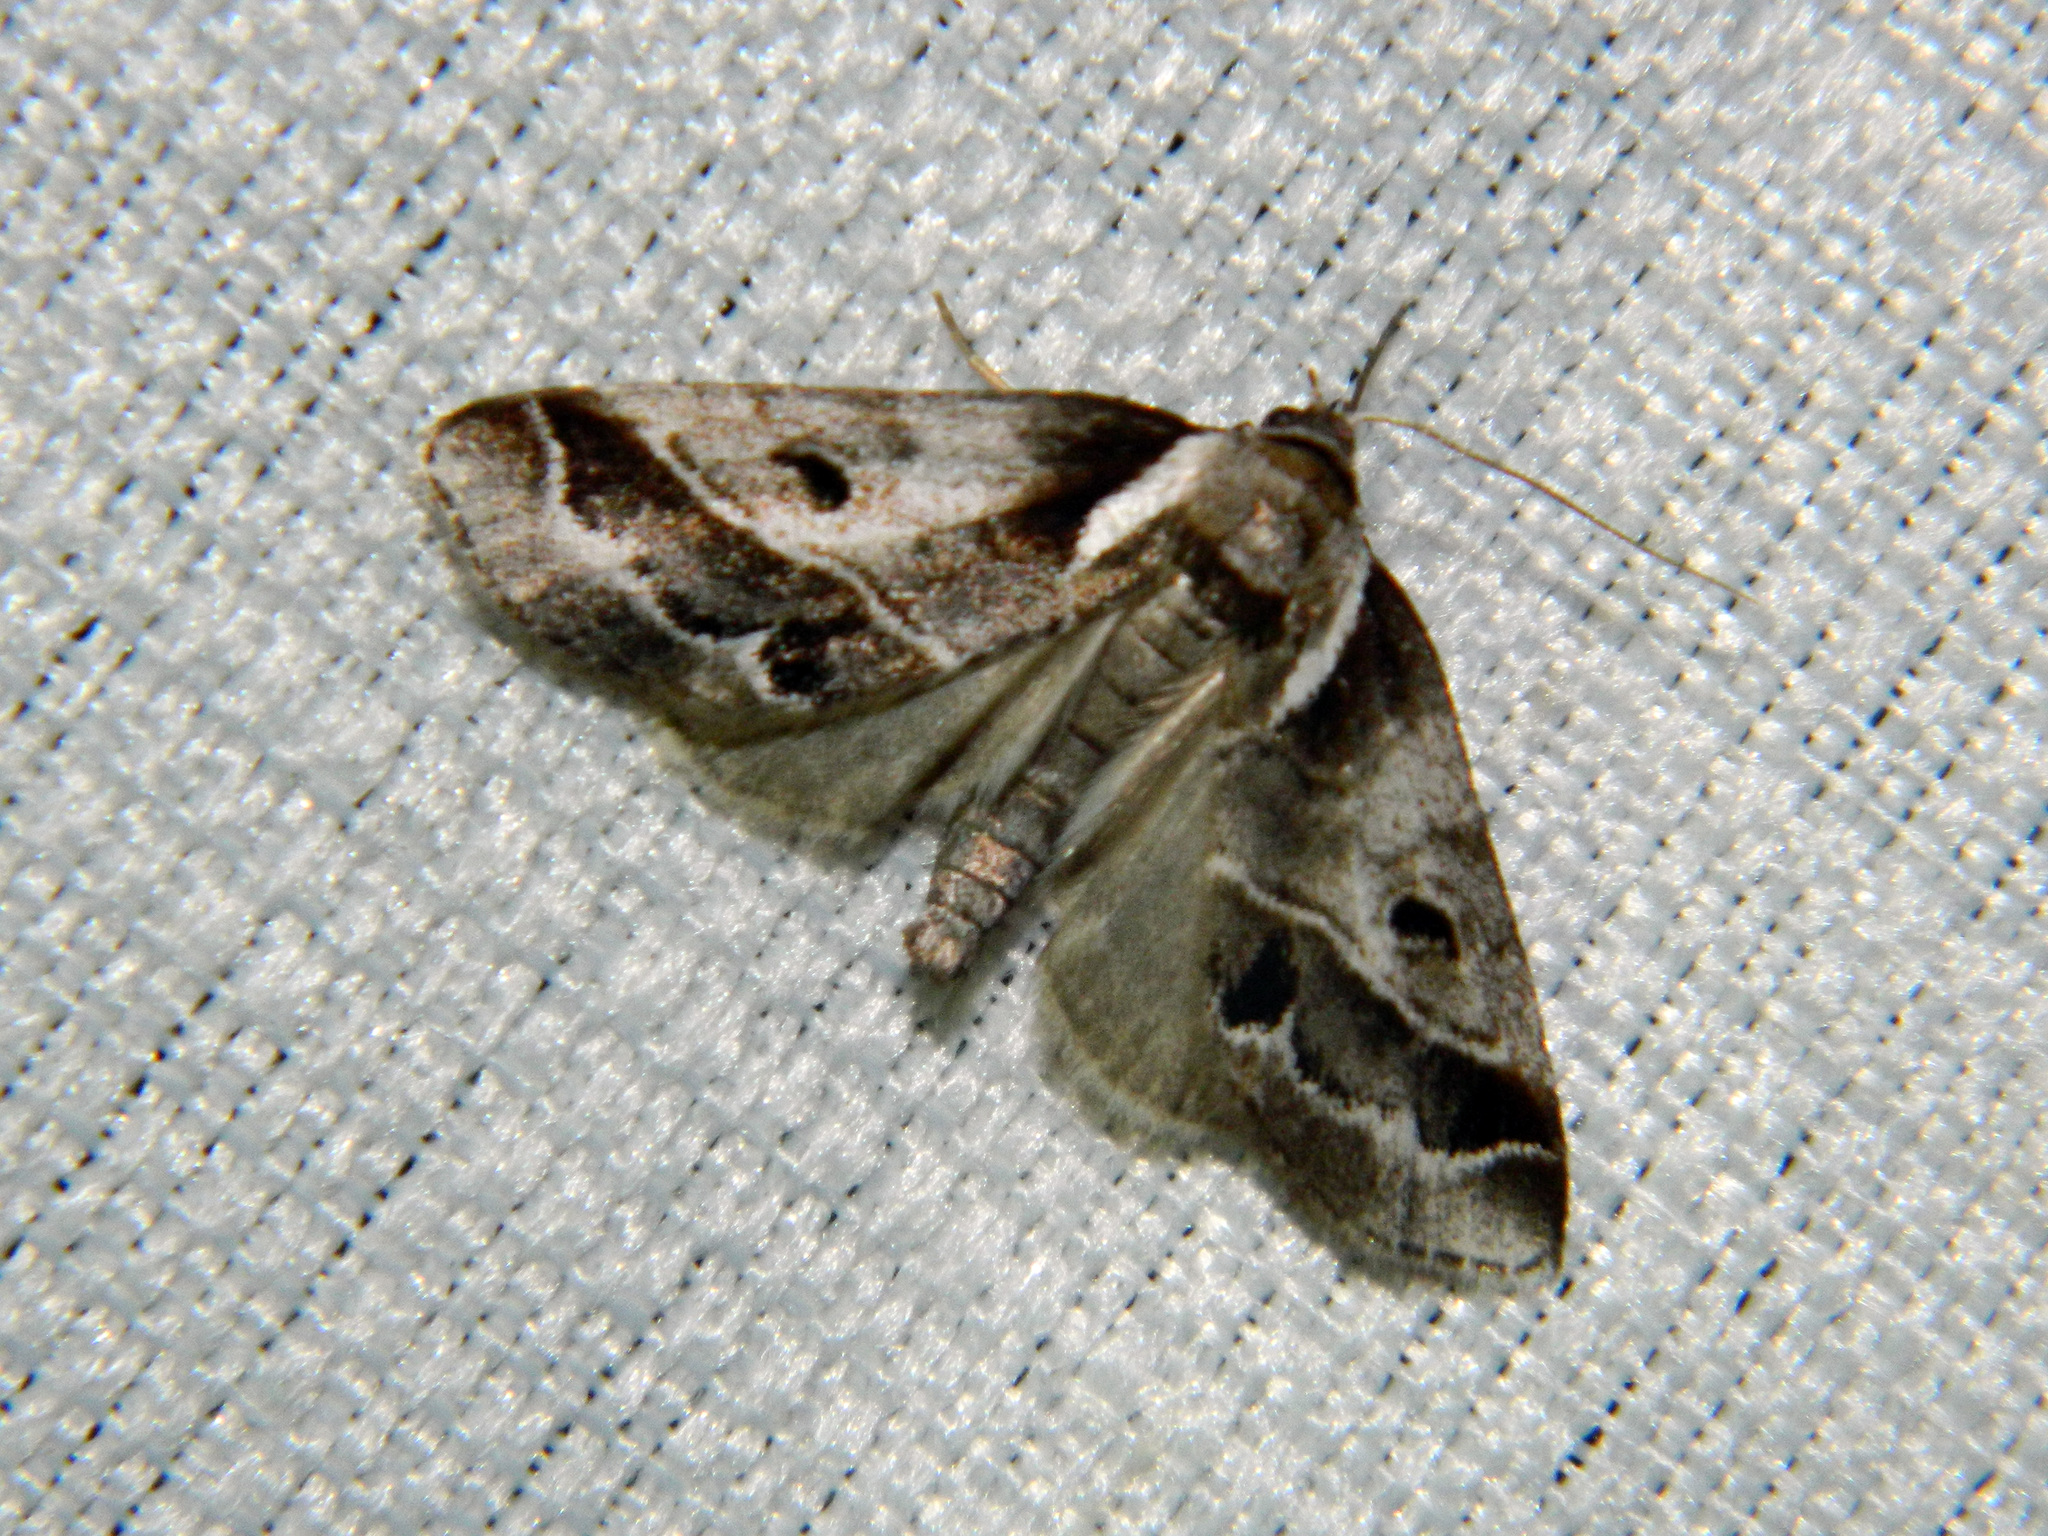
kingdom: Animalia
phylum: Arthropoda
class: Insecta
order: Lepidoptera
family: Nolidae
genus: Baileya
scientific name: Baileya doubledayi
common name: Doubleday's baileya moth
